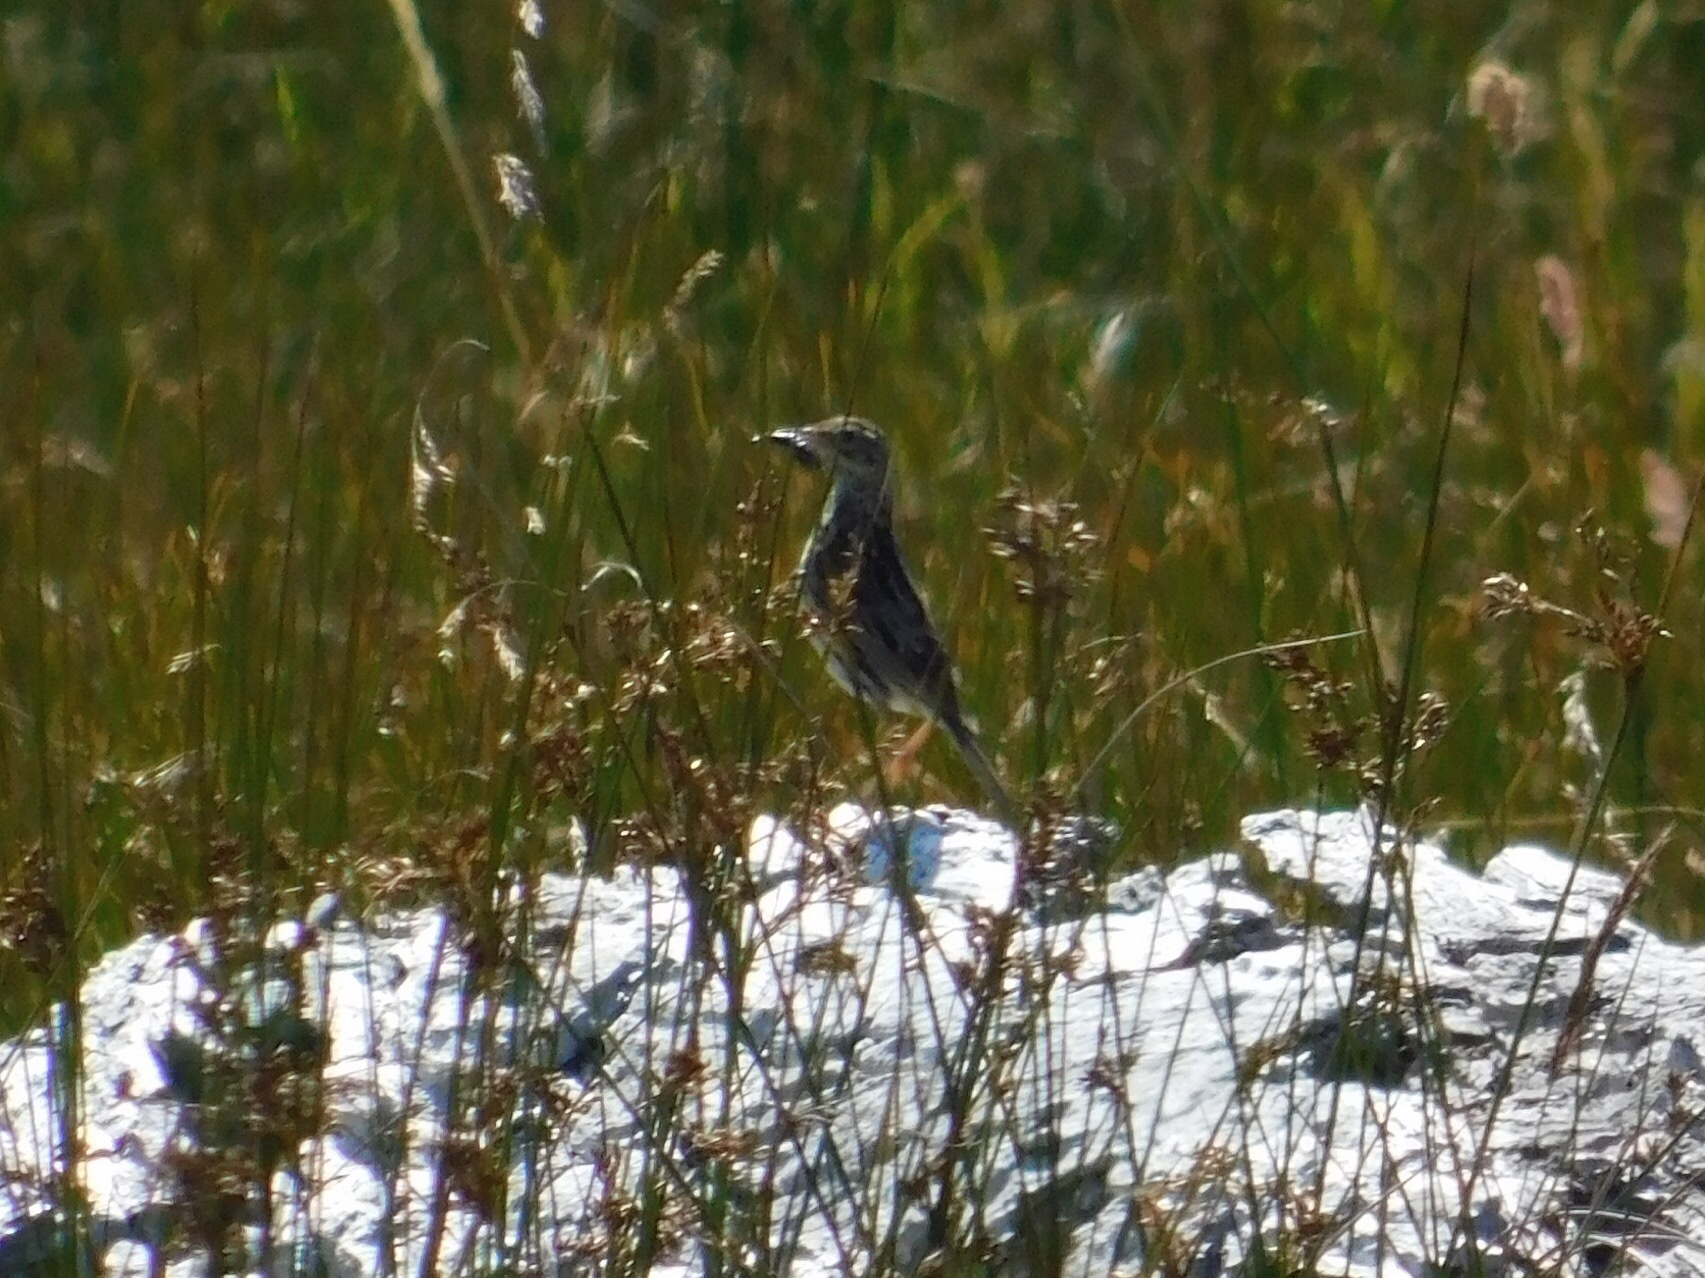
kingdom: Animalia
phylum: Chordata
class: Aves
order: Passeriformes
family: Motacillidae
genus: Anthus
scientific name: Anthus correndera
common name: Correndera pipit
